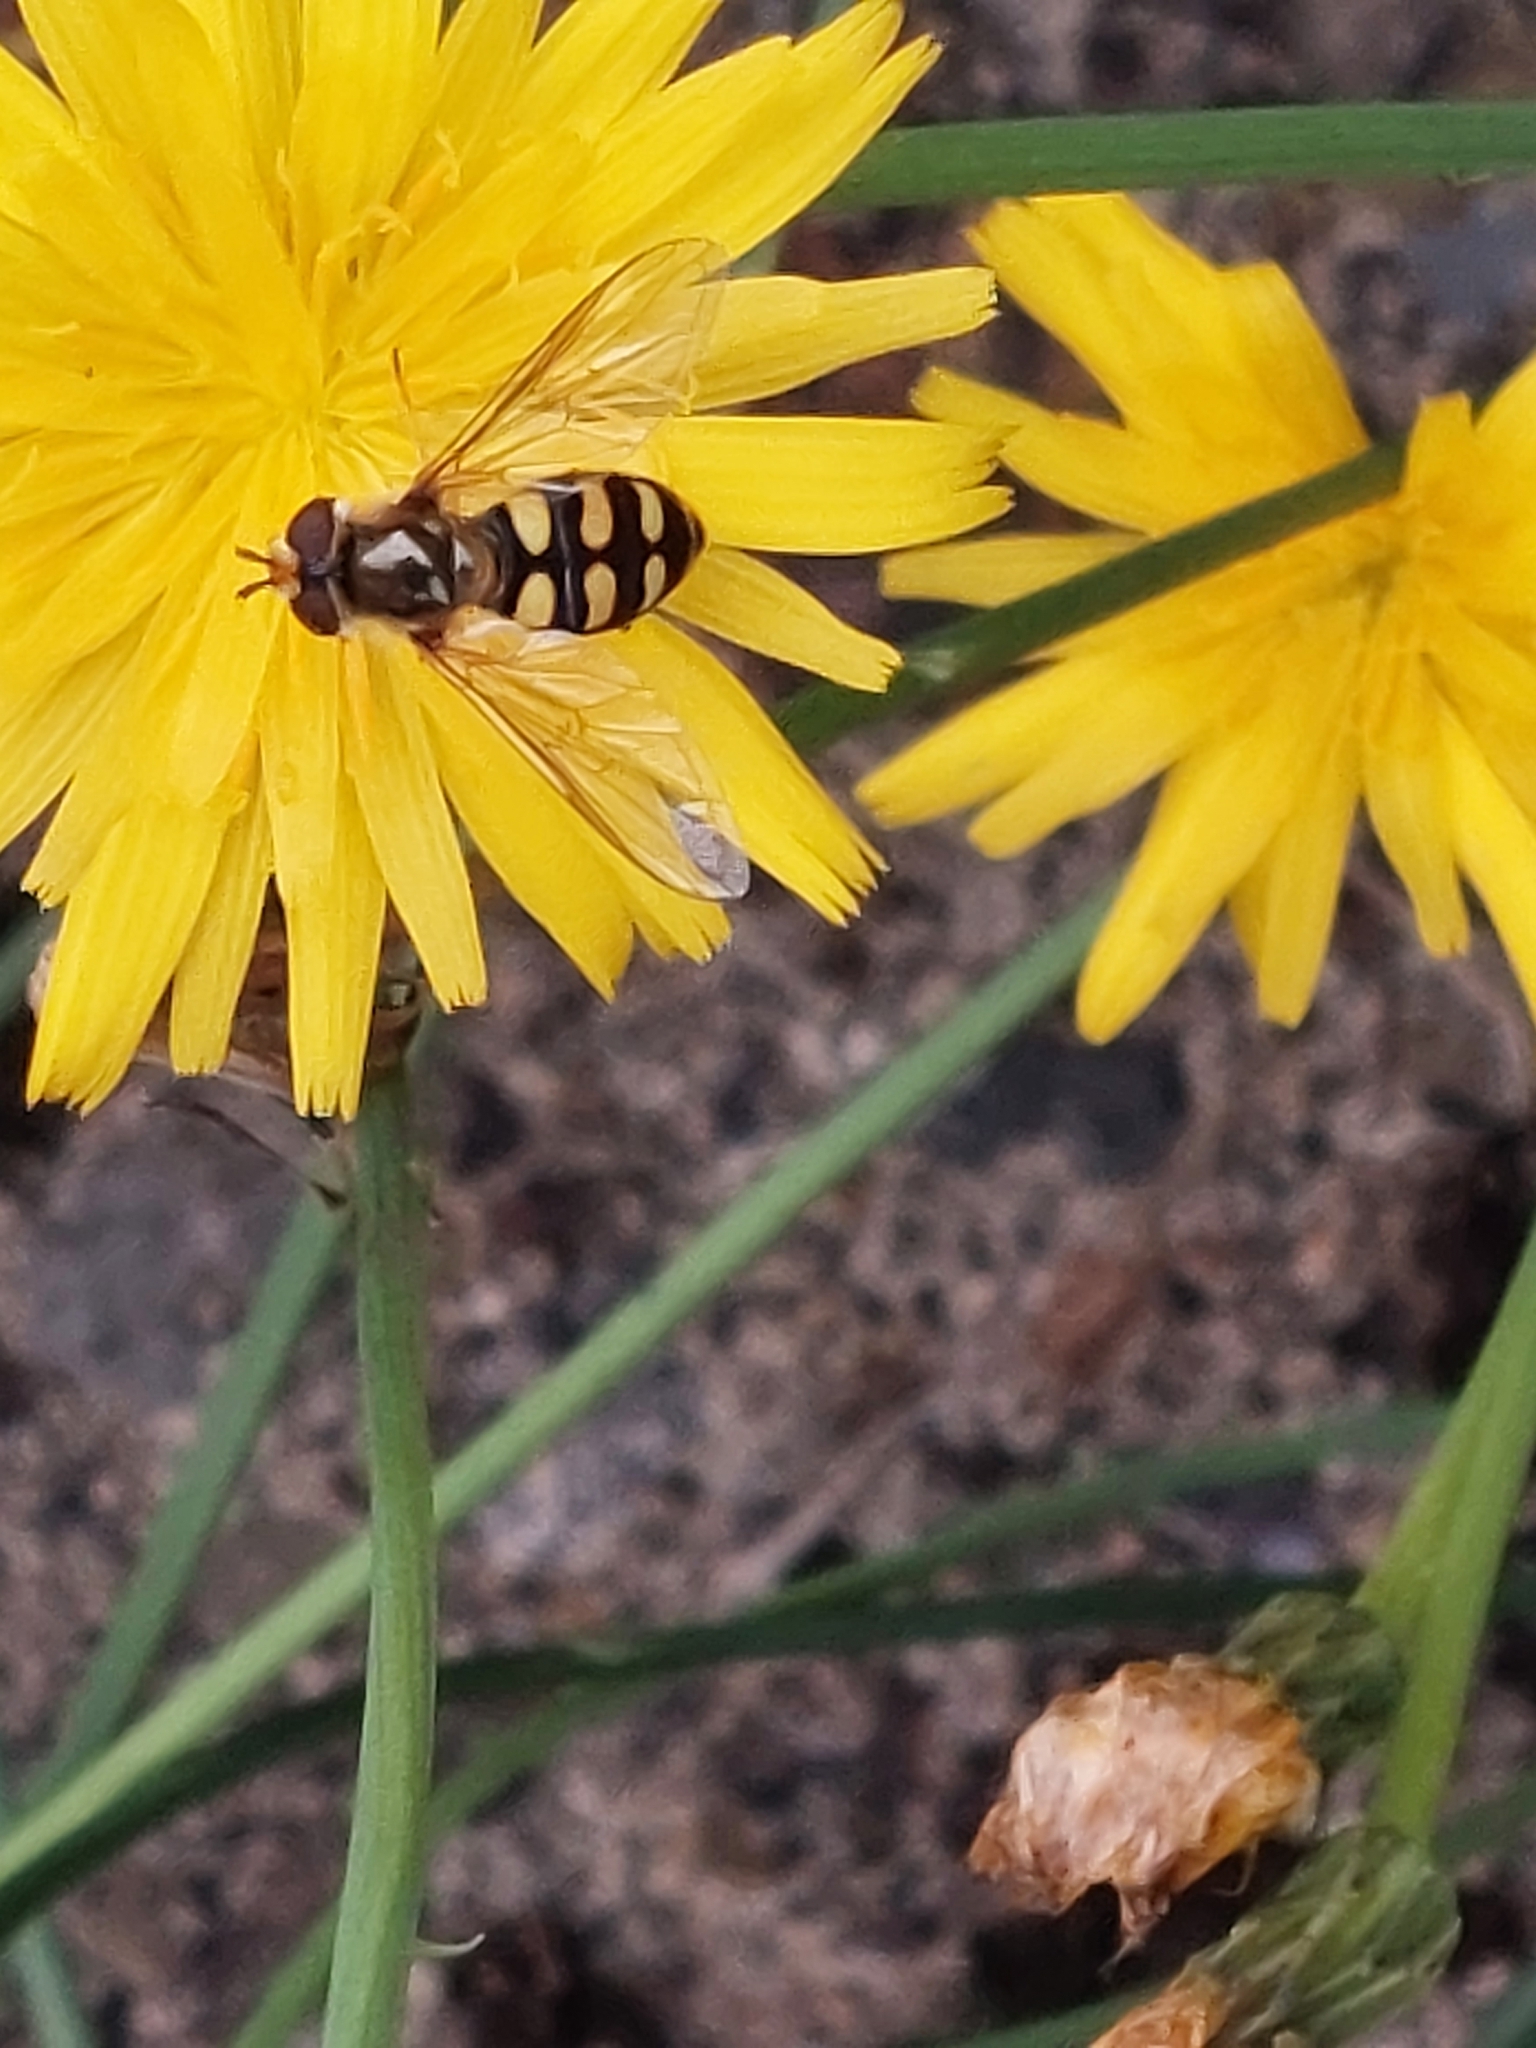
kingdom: Animalia
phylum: Arthropoda
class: Insecta
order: Diptera
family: Syrphidae
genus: Eupeodes
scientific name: Eupeodes
